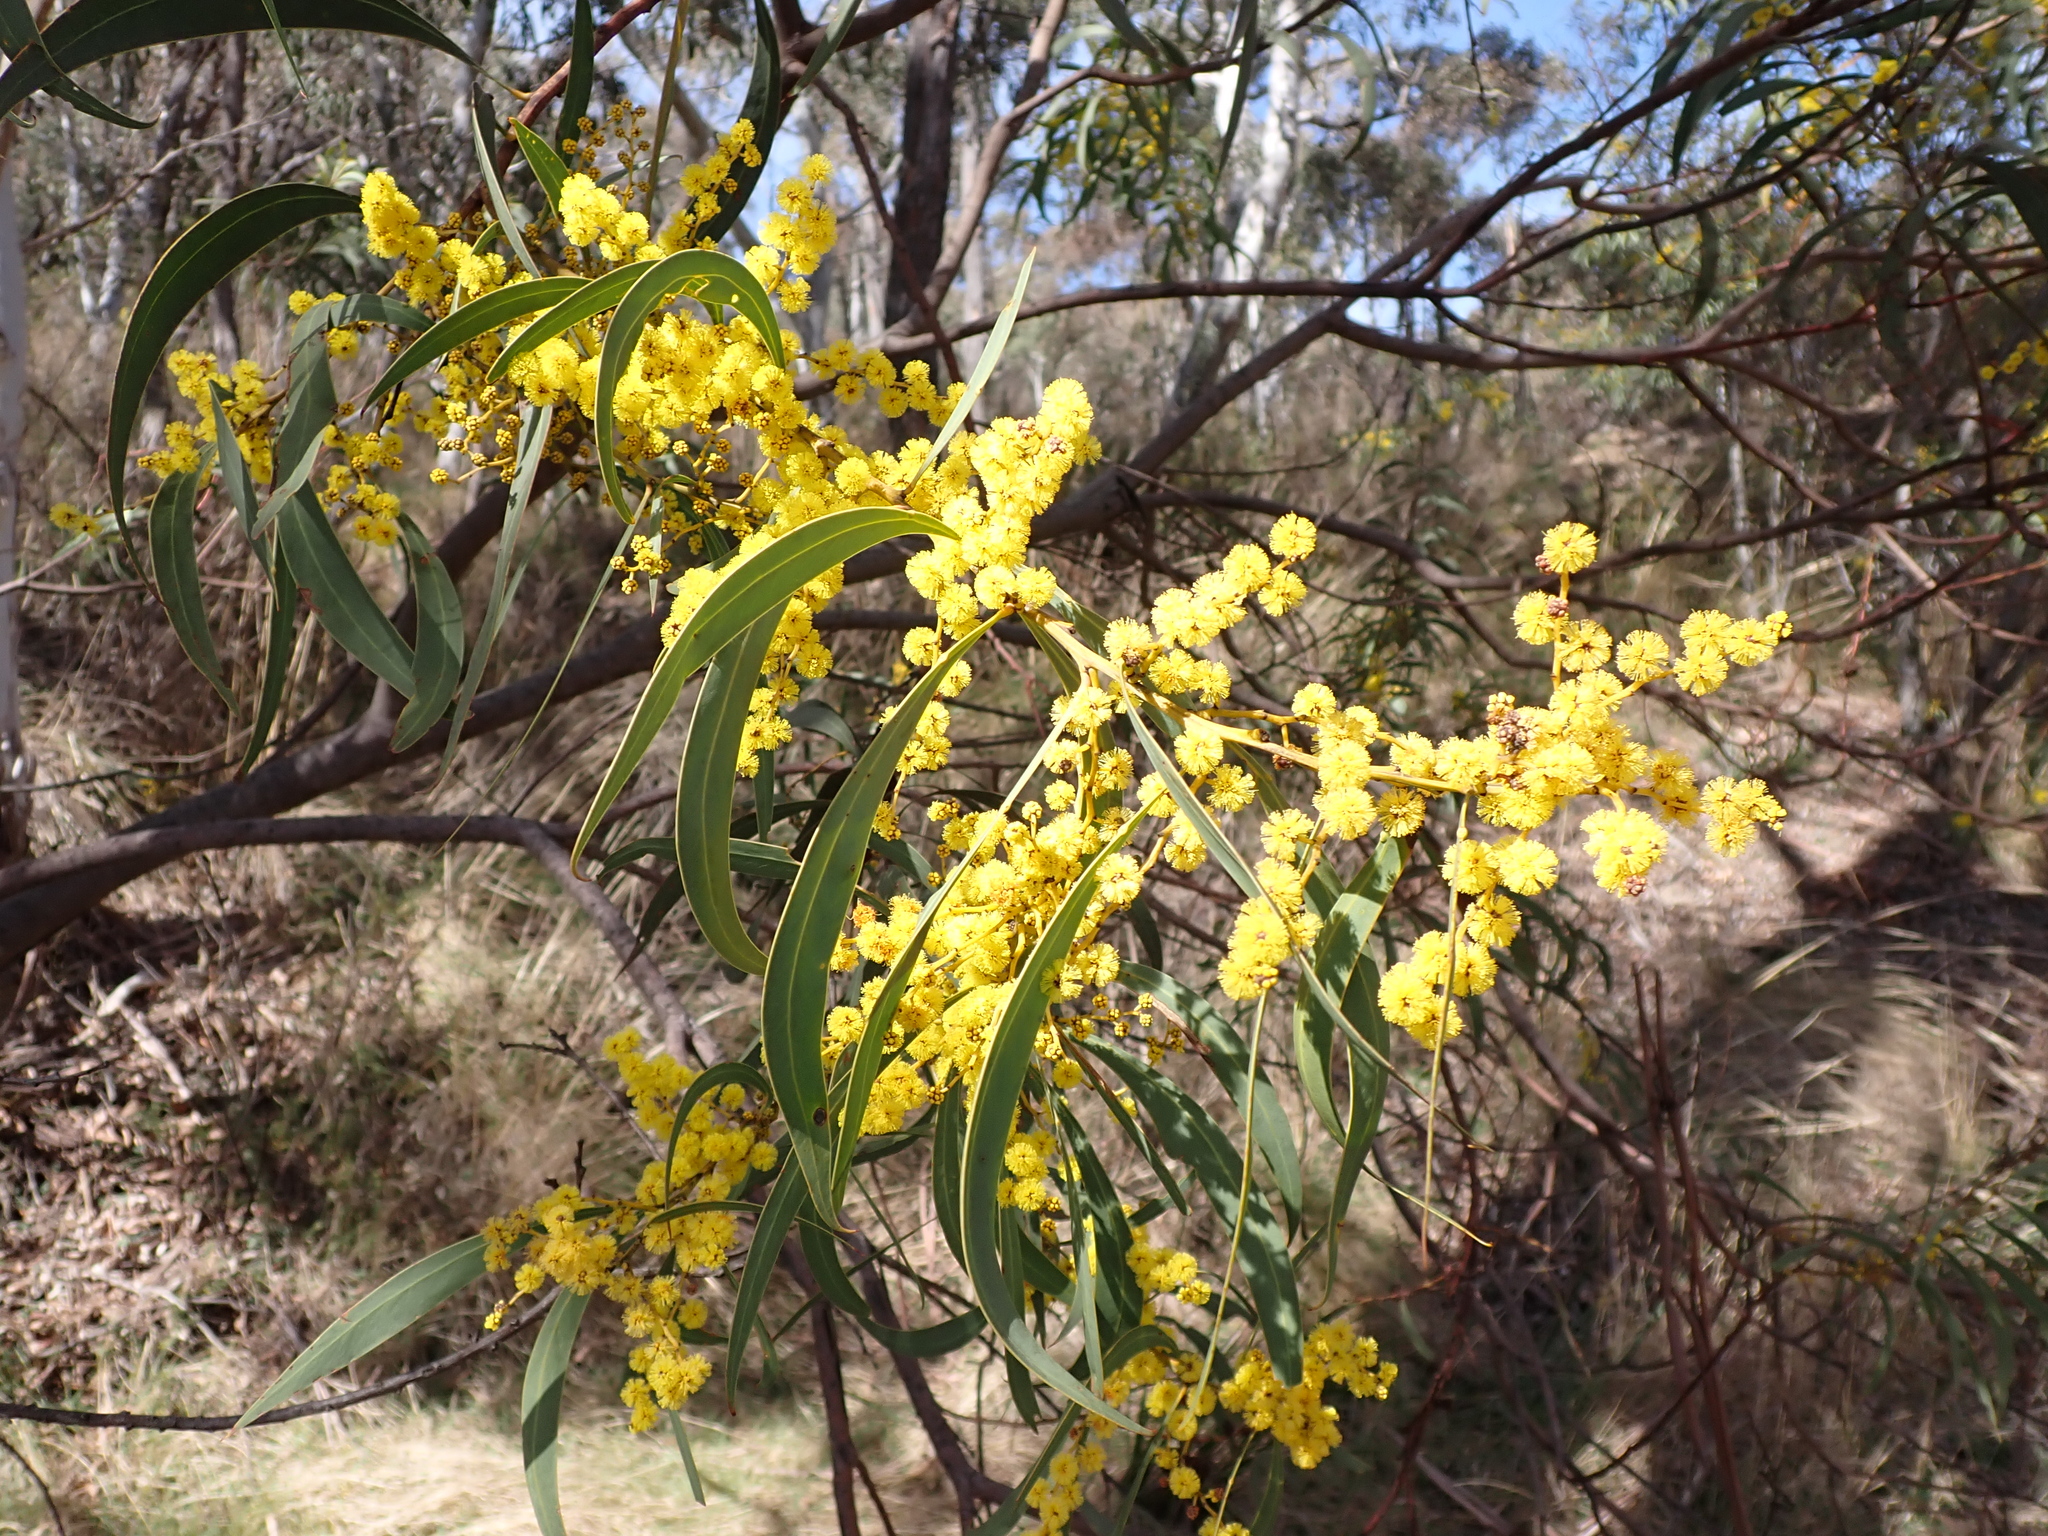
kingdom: Plantae
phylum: Tracheophyta
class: Magnoliopsida
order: Fabales
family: Fabaceae
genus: Acacia
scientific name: Acacia falciformis
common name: Tanning wattle
